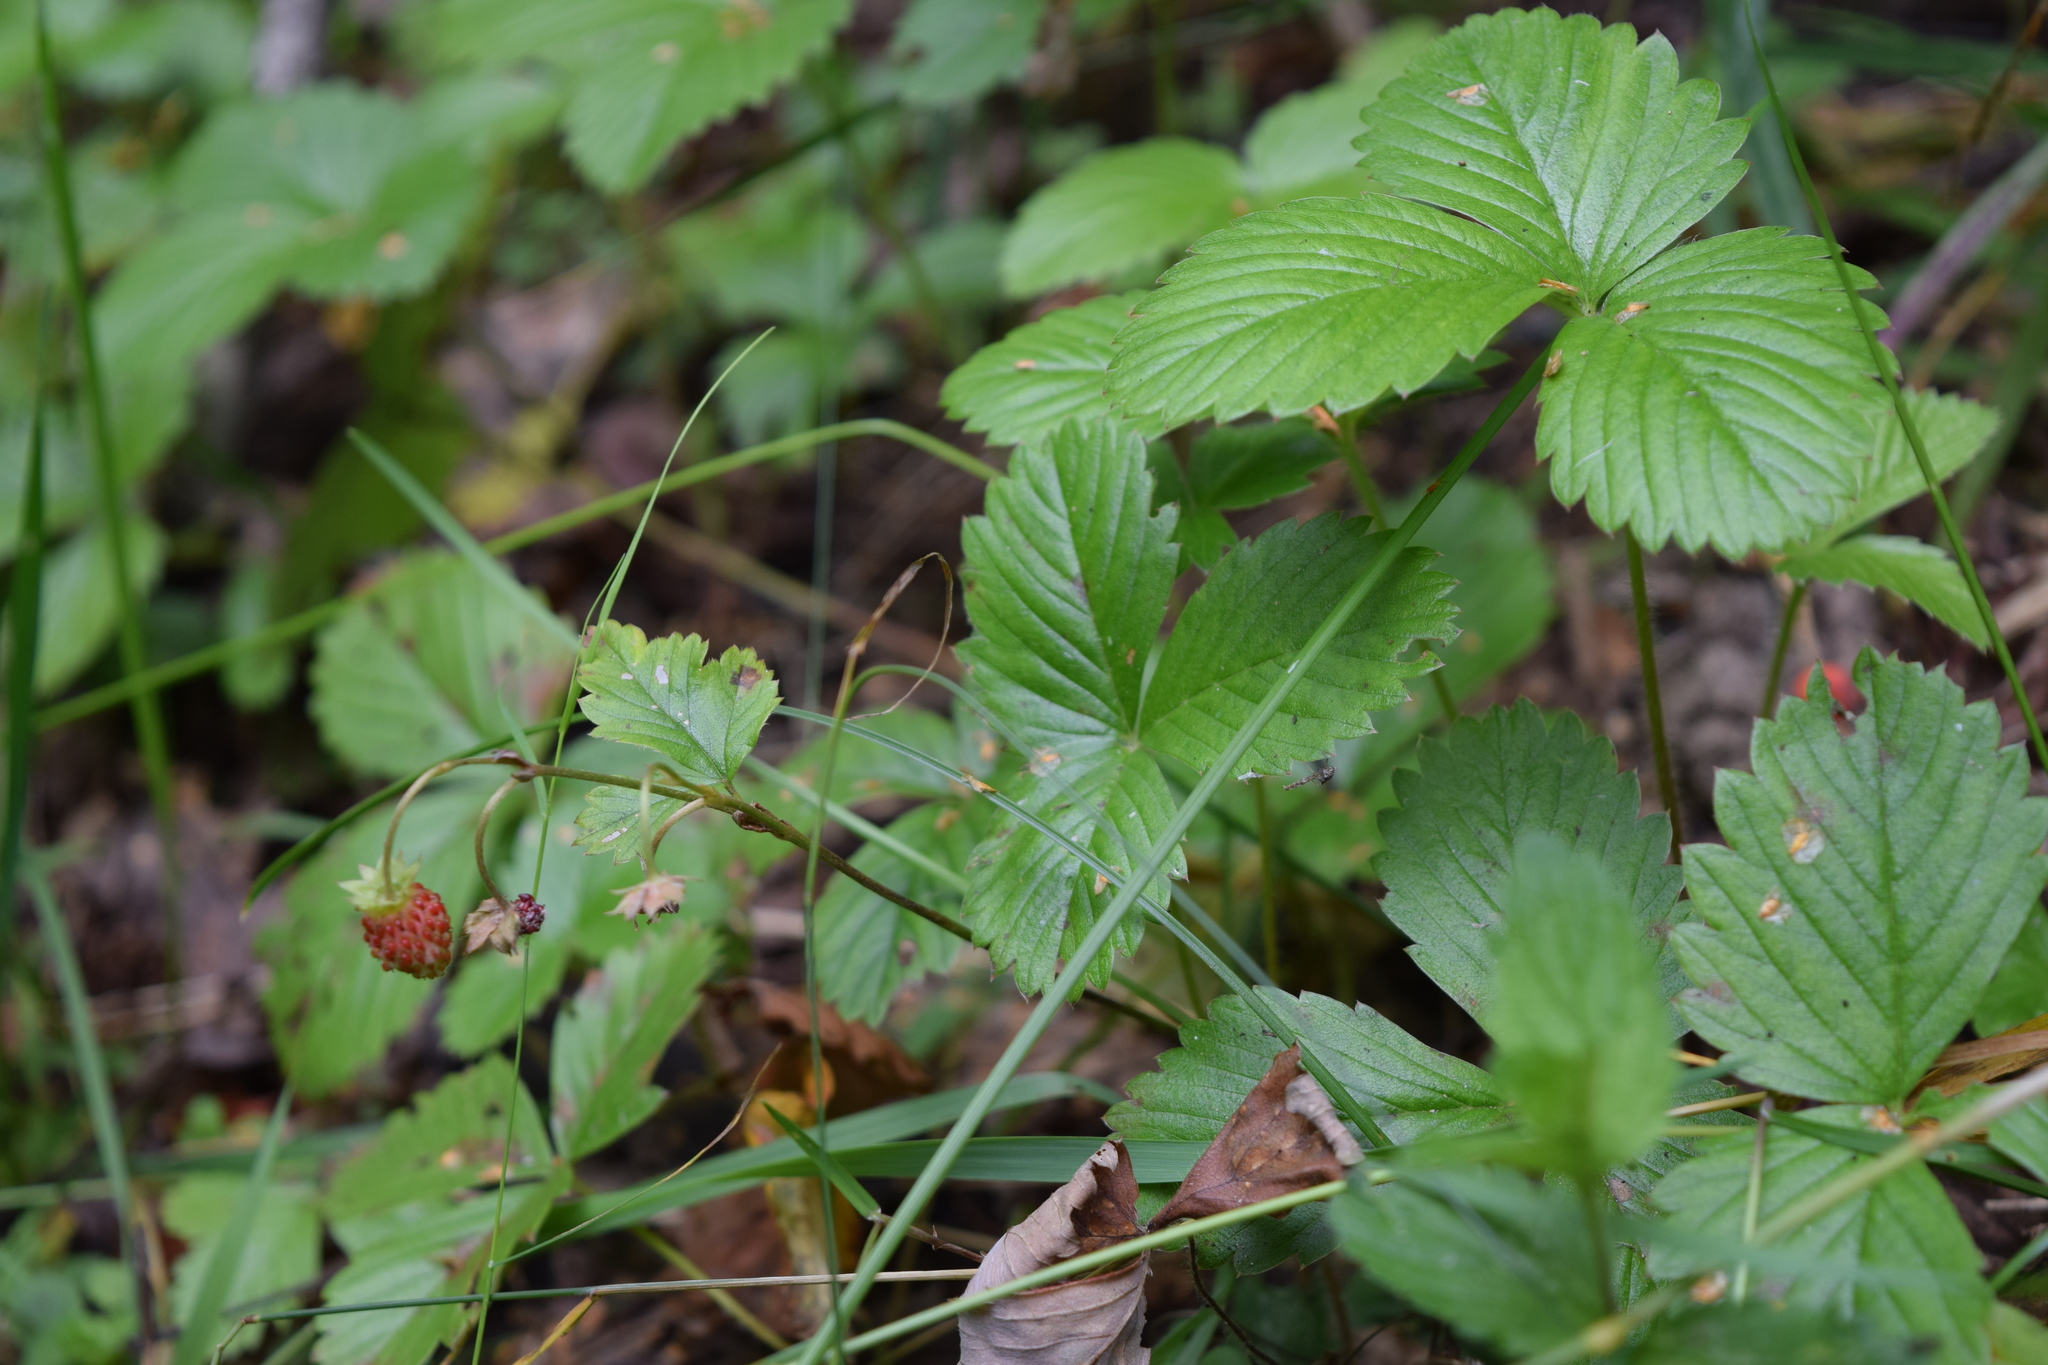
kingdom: Plantae
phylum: Tracheophyta
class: Magnoliopsida
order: Rosales
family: Rosaceae
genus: Fragaria
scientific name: Fragaria vesca
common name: Wild strawberry
